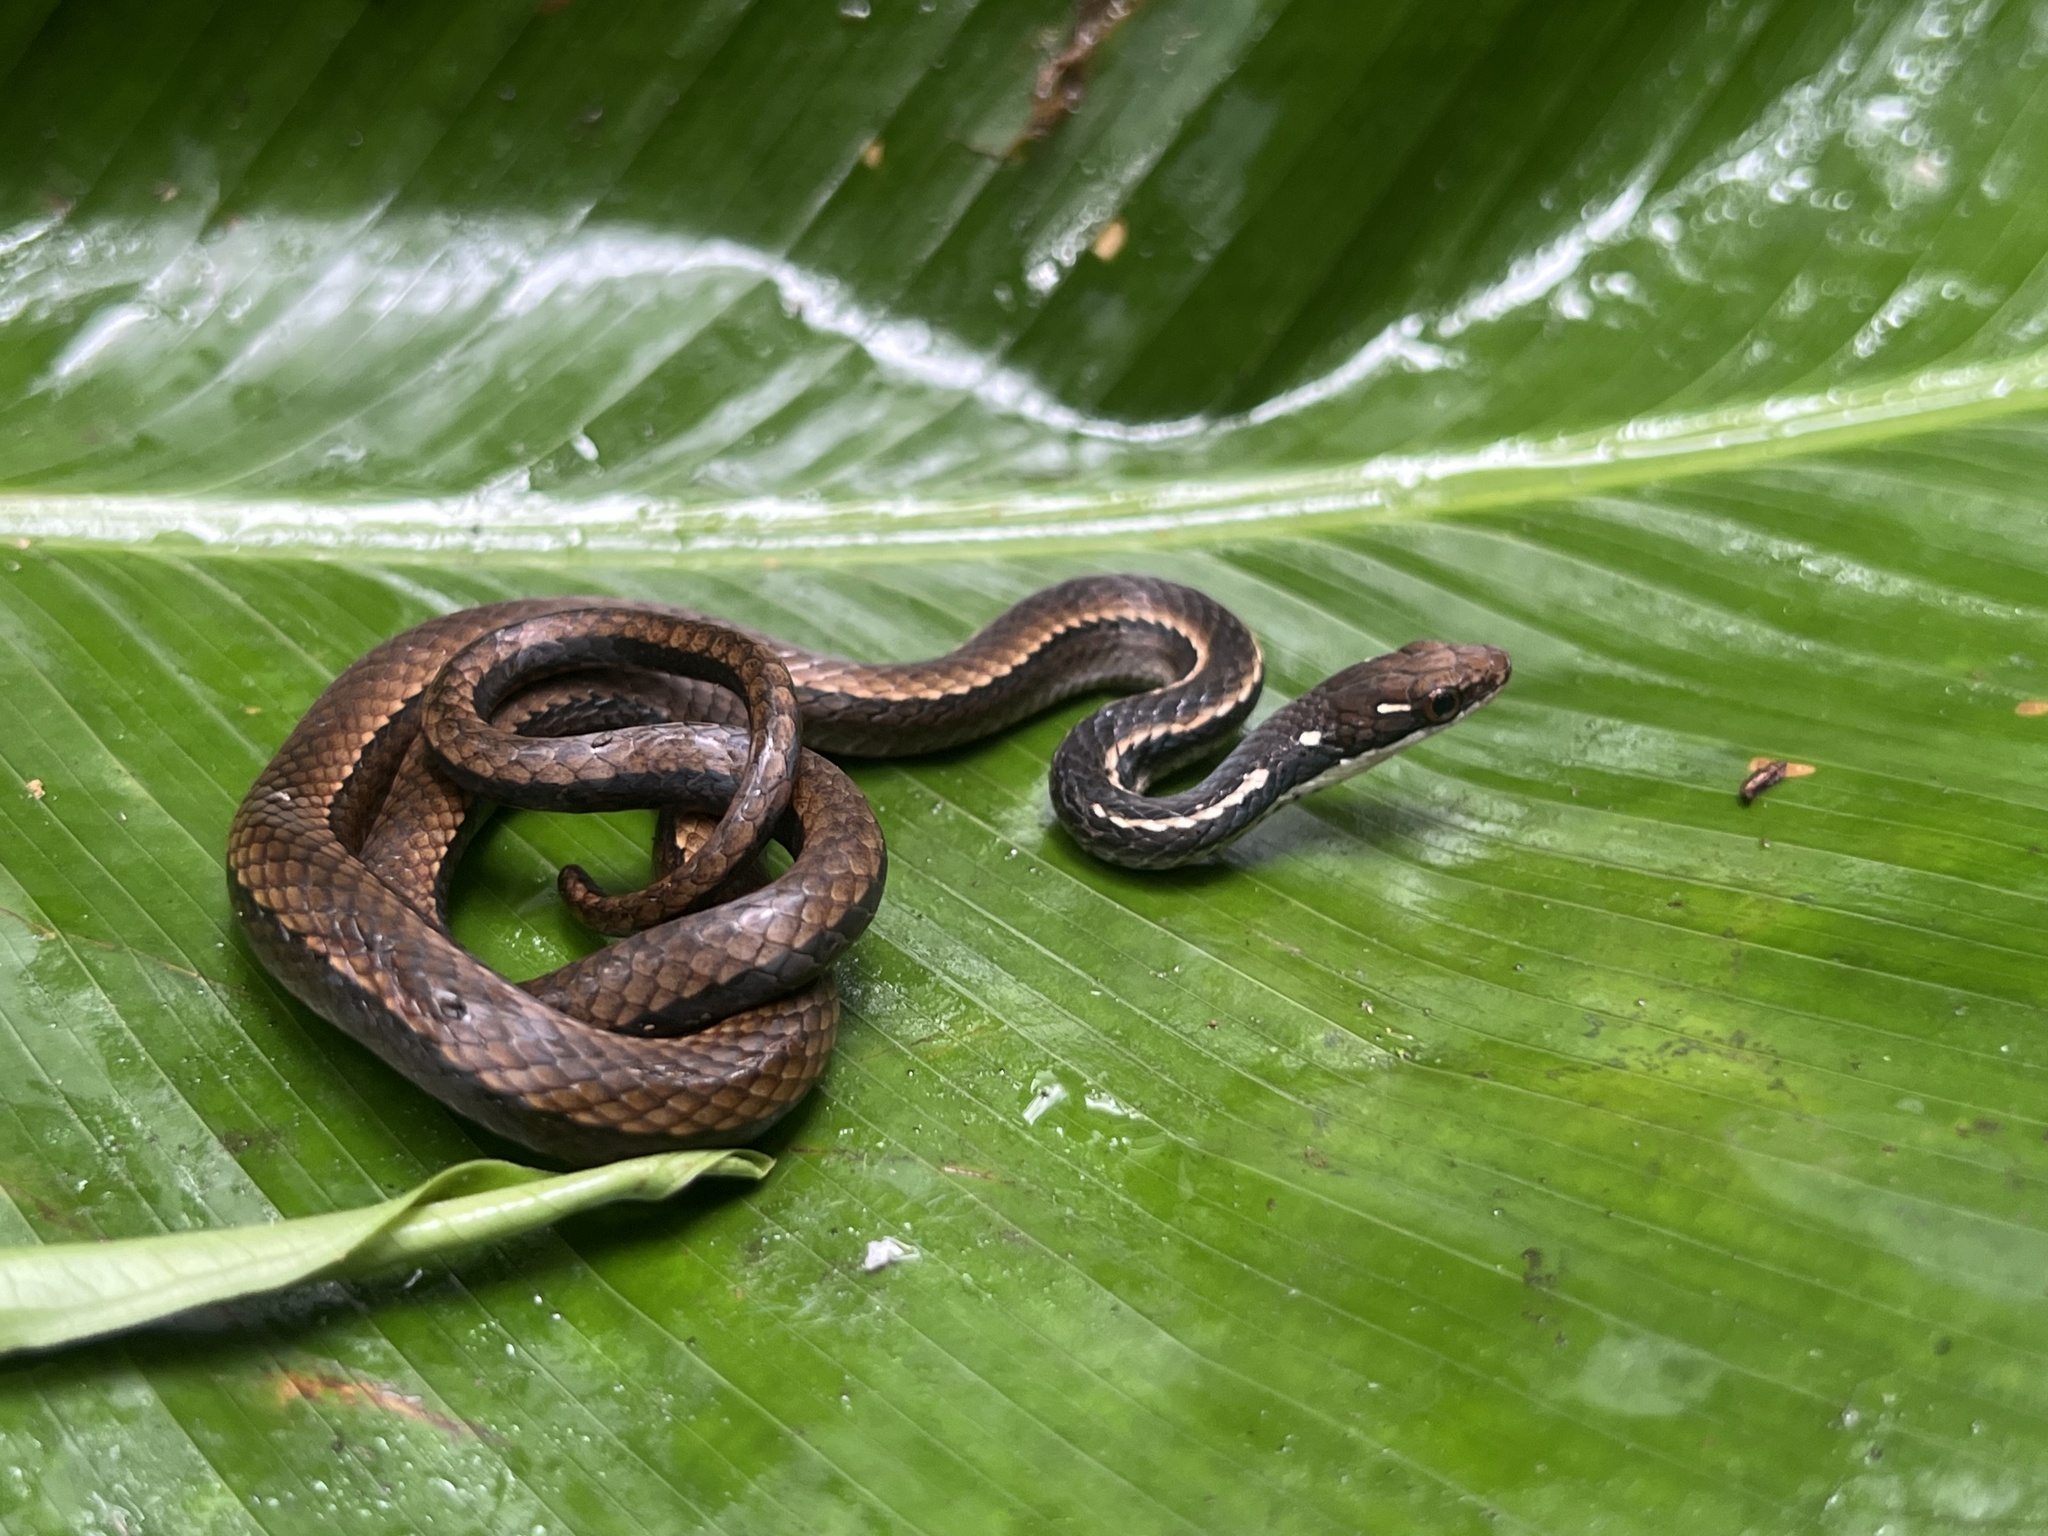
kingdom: Animalia
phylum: Chordata
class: Squamata
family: Colubridae
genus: Rhadinaea
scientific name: Rhadinaea decorata
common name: Adorned graceful brown snake
